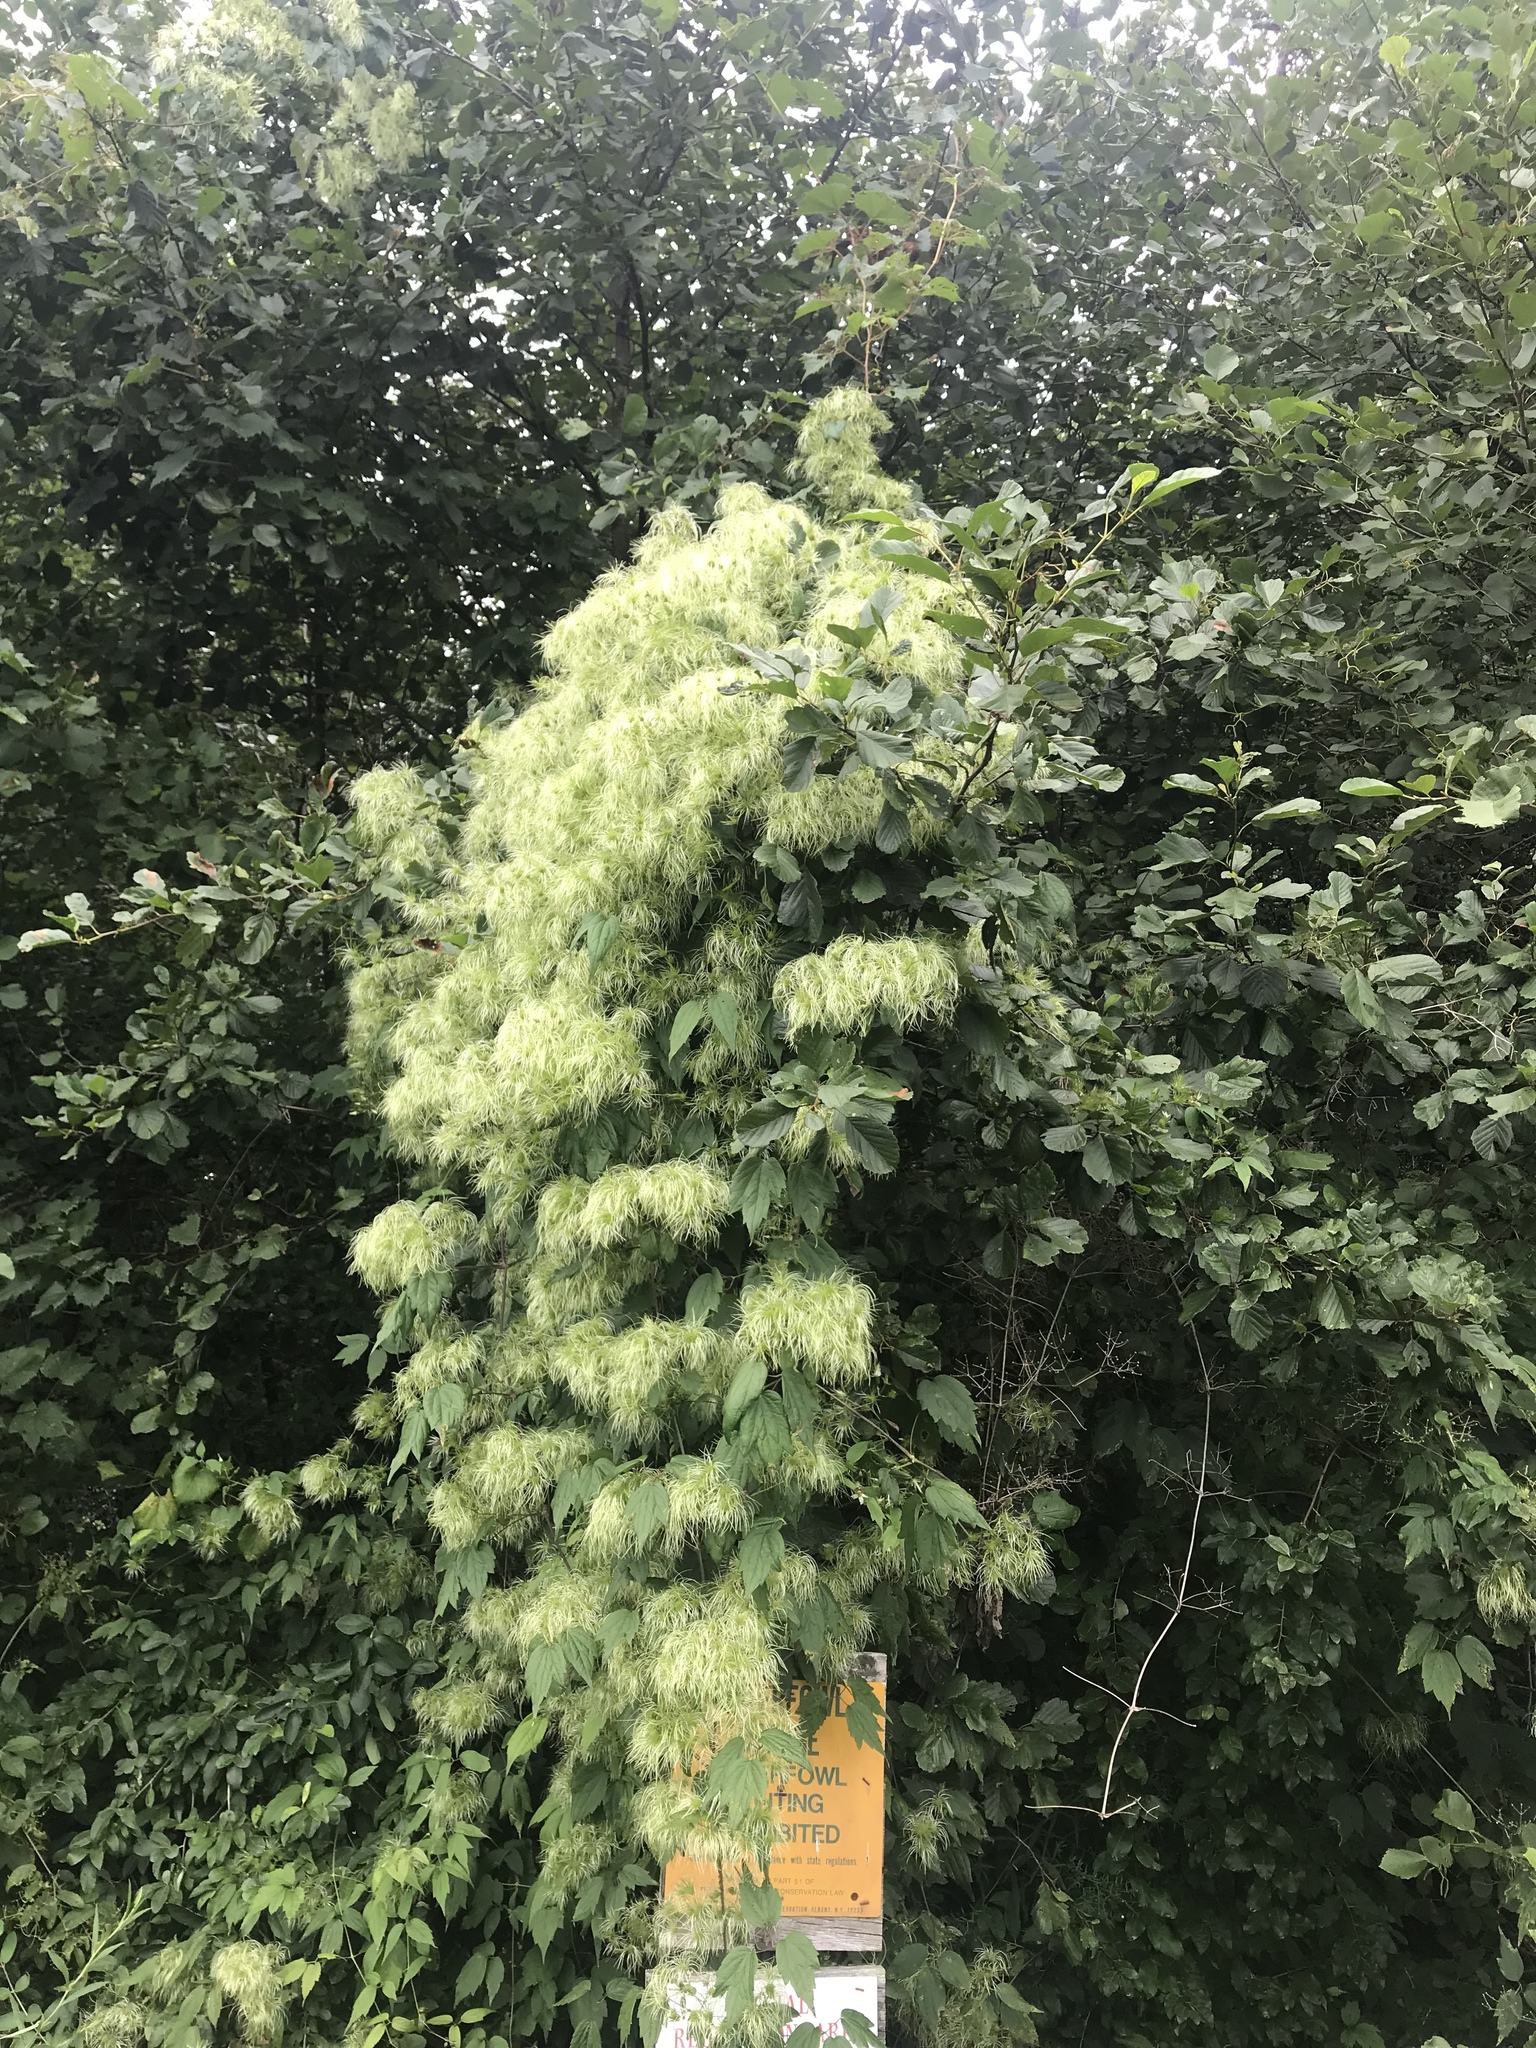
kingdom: Plantae
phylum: Tracheophyta
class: Magnoliopsida
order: Ranunculales
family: Ranunculaceae
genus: Clematis
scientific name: Clematis virginiana
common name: Virgin's-bower
